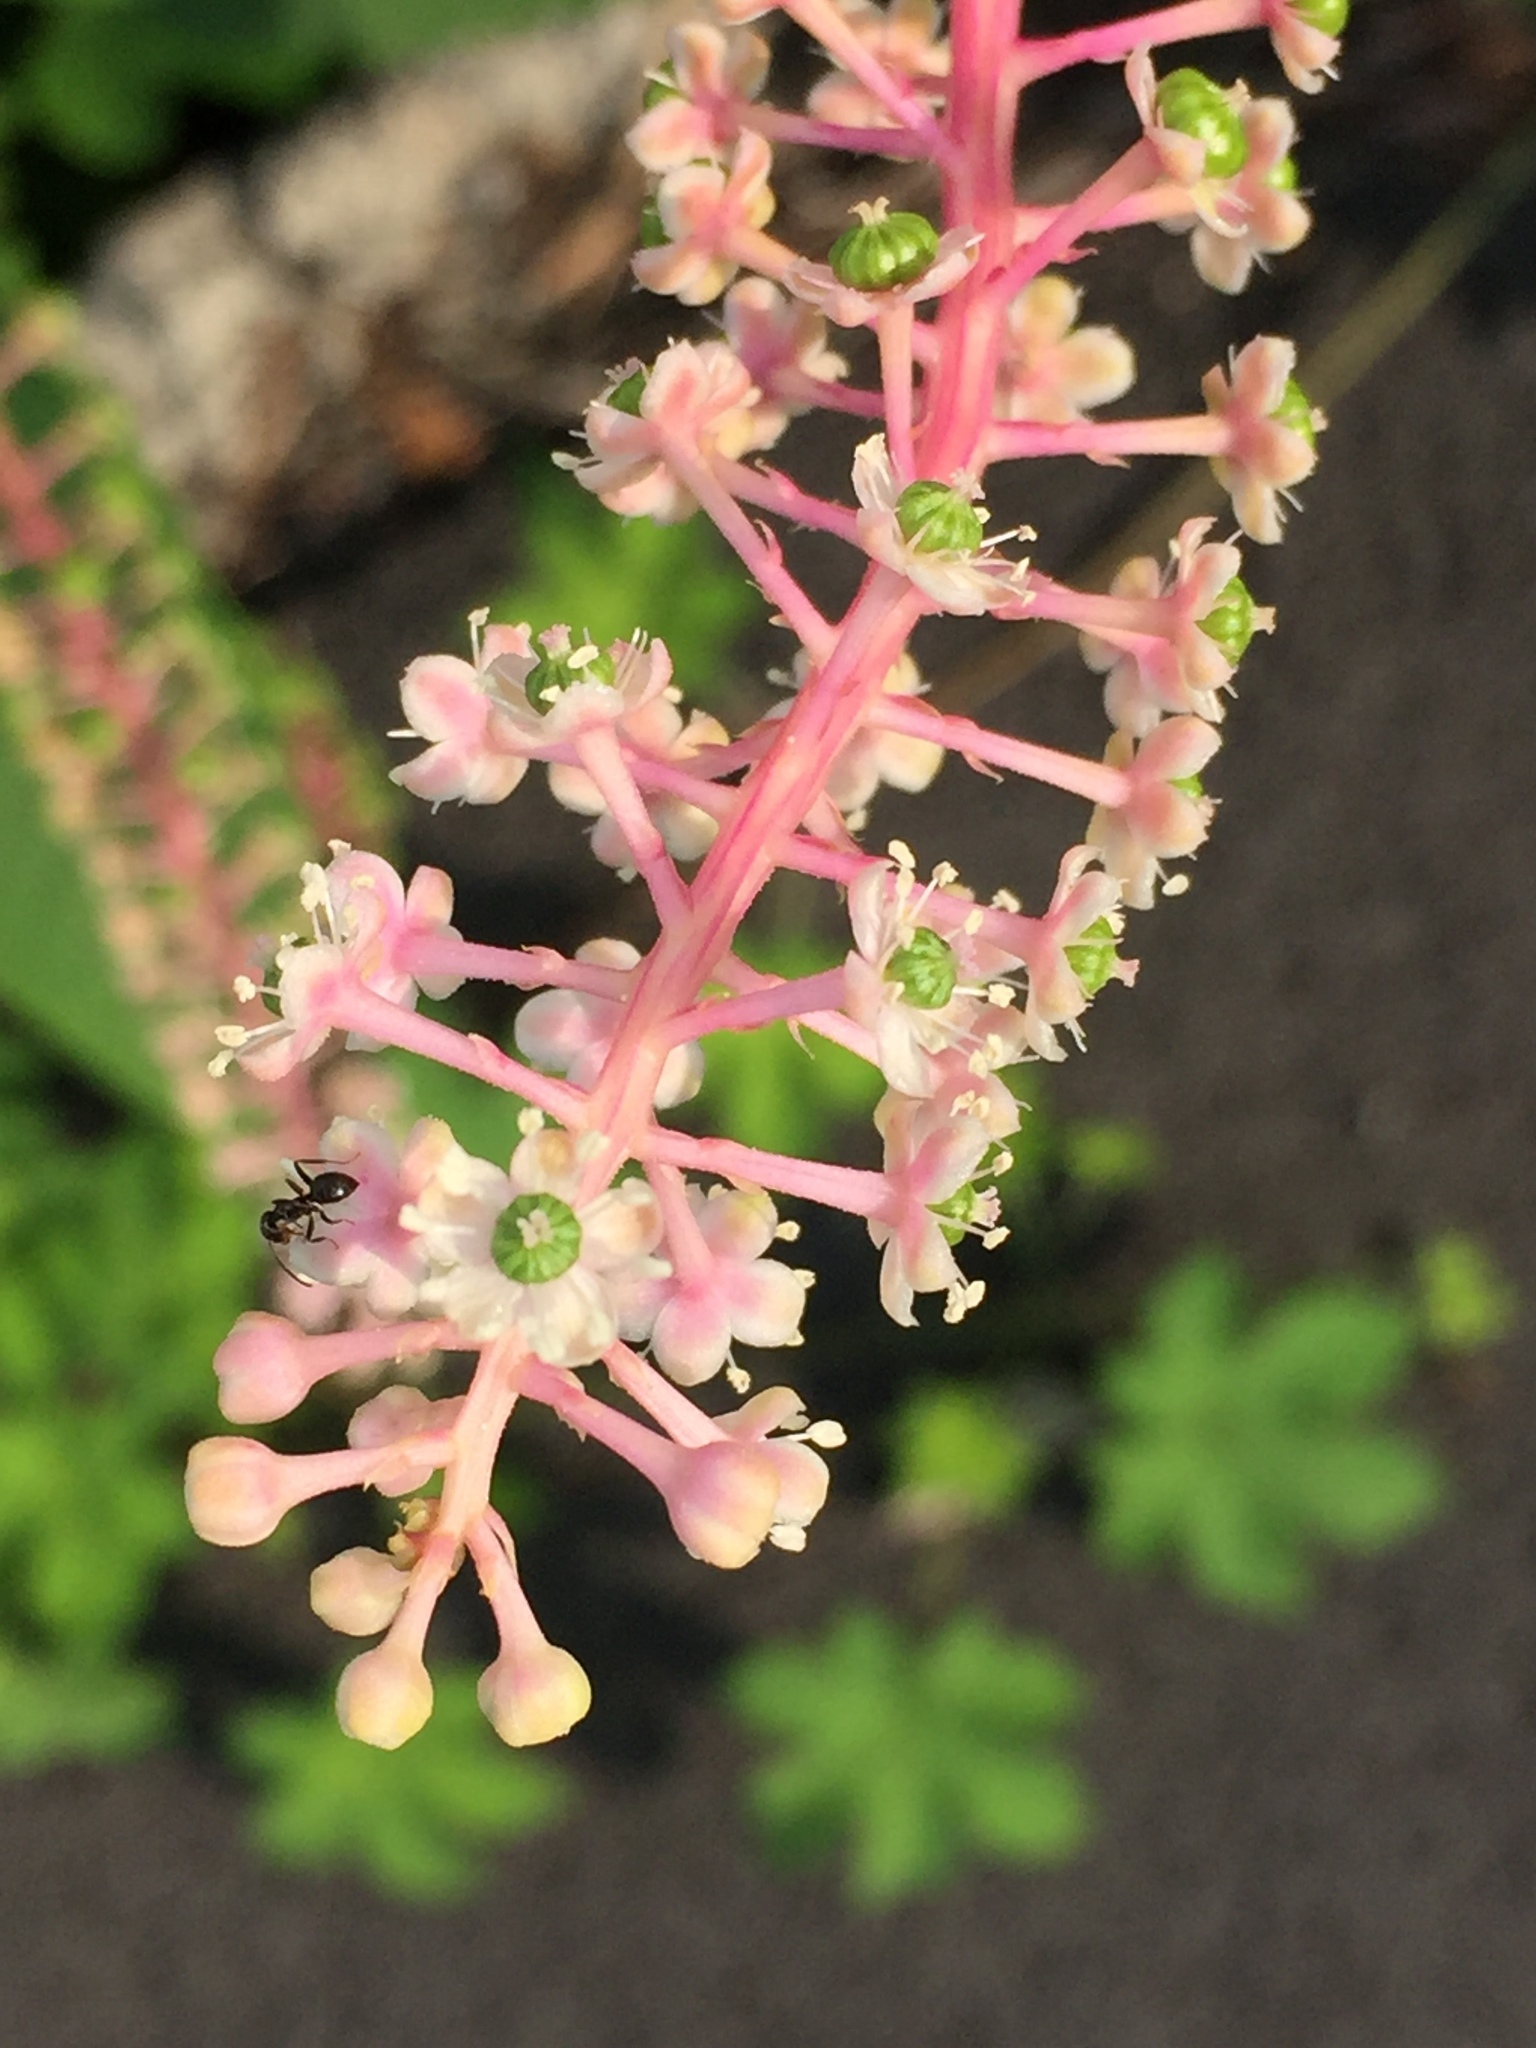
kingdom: Plantae
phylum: Tracheophyta
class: Magnoliopsida
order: Caryophyllales
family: Phytolaccaceae
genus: Phytolacca
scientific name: Phytolacca americana
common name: American pokeweed
